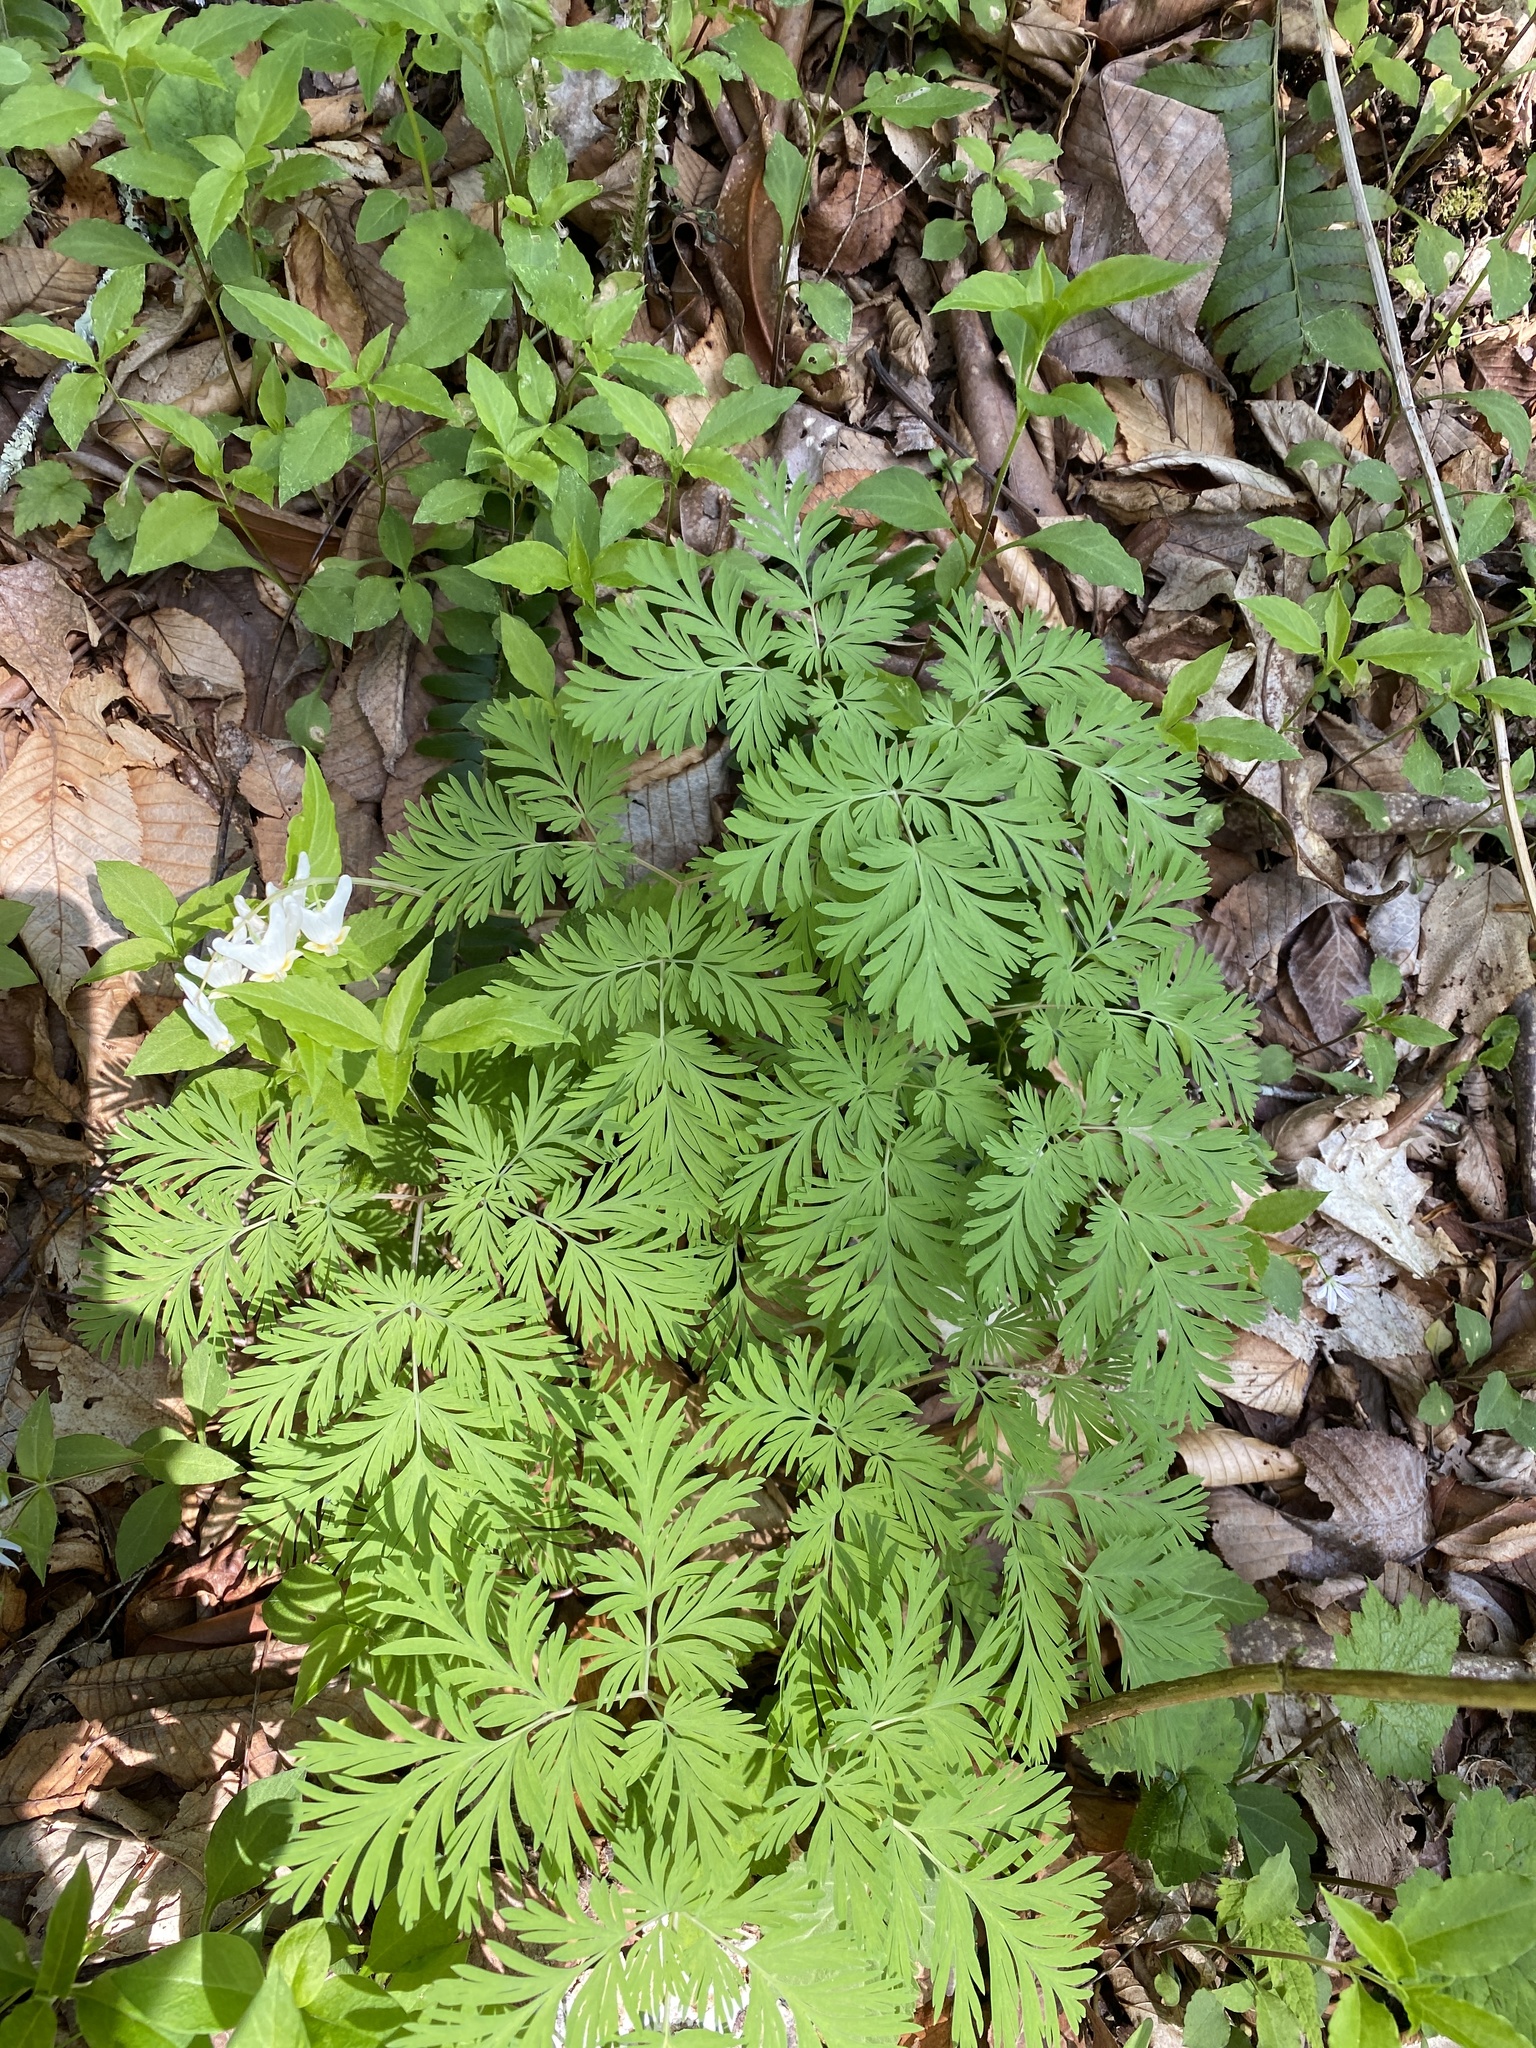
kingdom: Plantae
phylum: Tracheophyta
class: Magnoliopsida
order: Ranunculales
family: Papaveraceae
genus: Dicentra
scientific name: Dicentra cucullaria
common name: Dutchman's breeches
